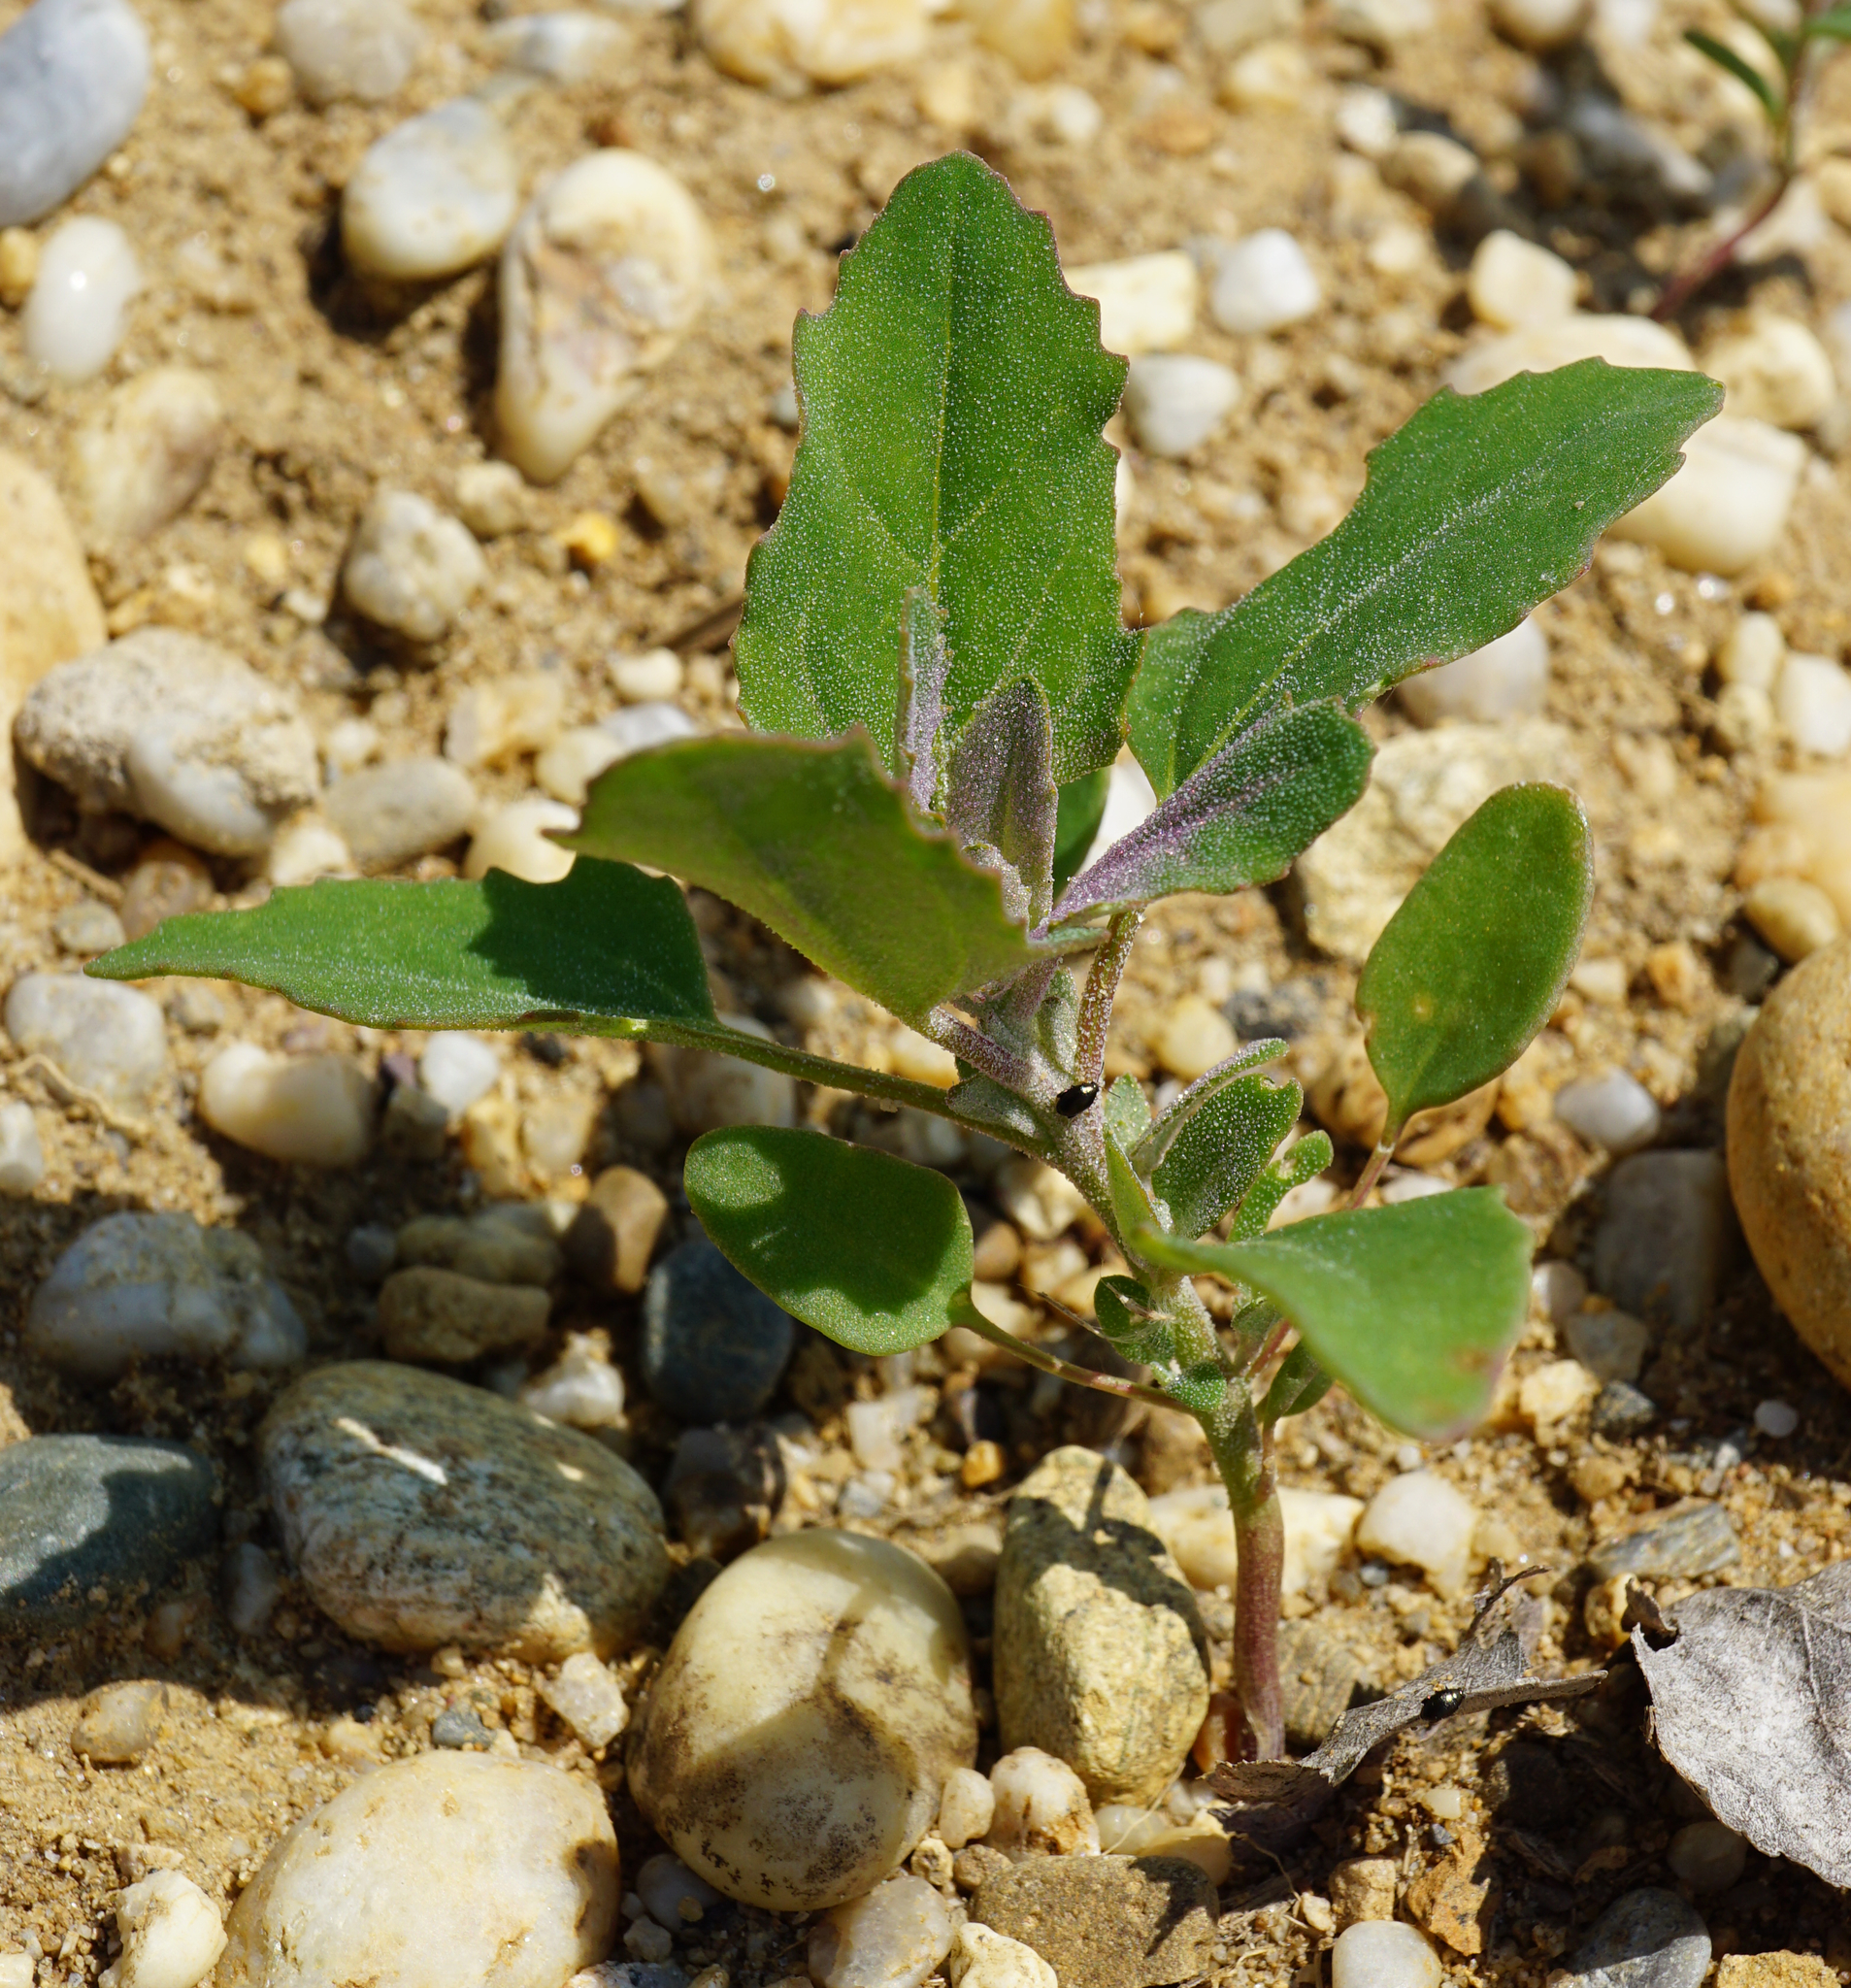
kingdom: Plantae
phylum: Tracheophyta
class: Magnoliopsida
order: Caryophyllales
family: Amaranthaceae
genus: Chenopodium
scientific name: Chenopodium album
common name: Fat-hen
